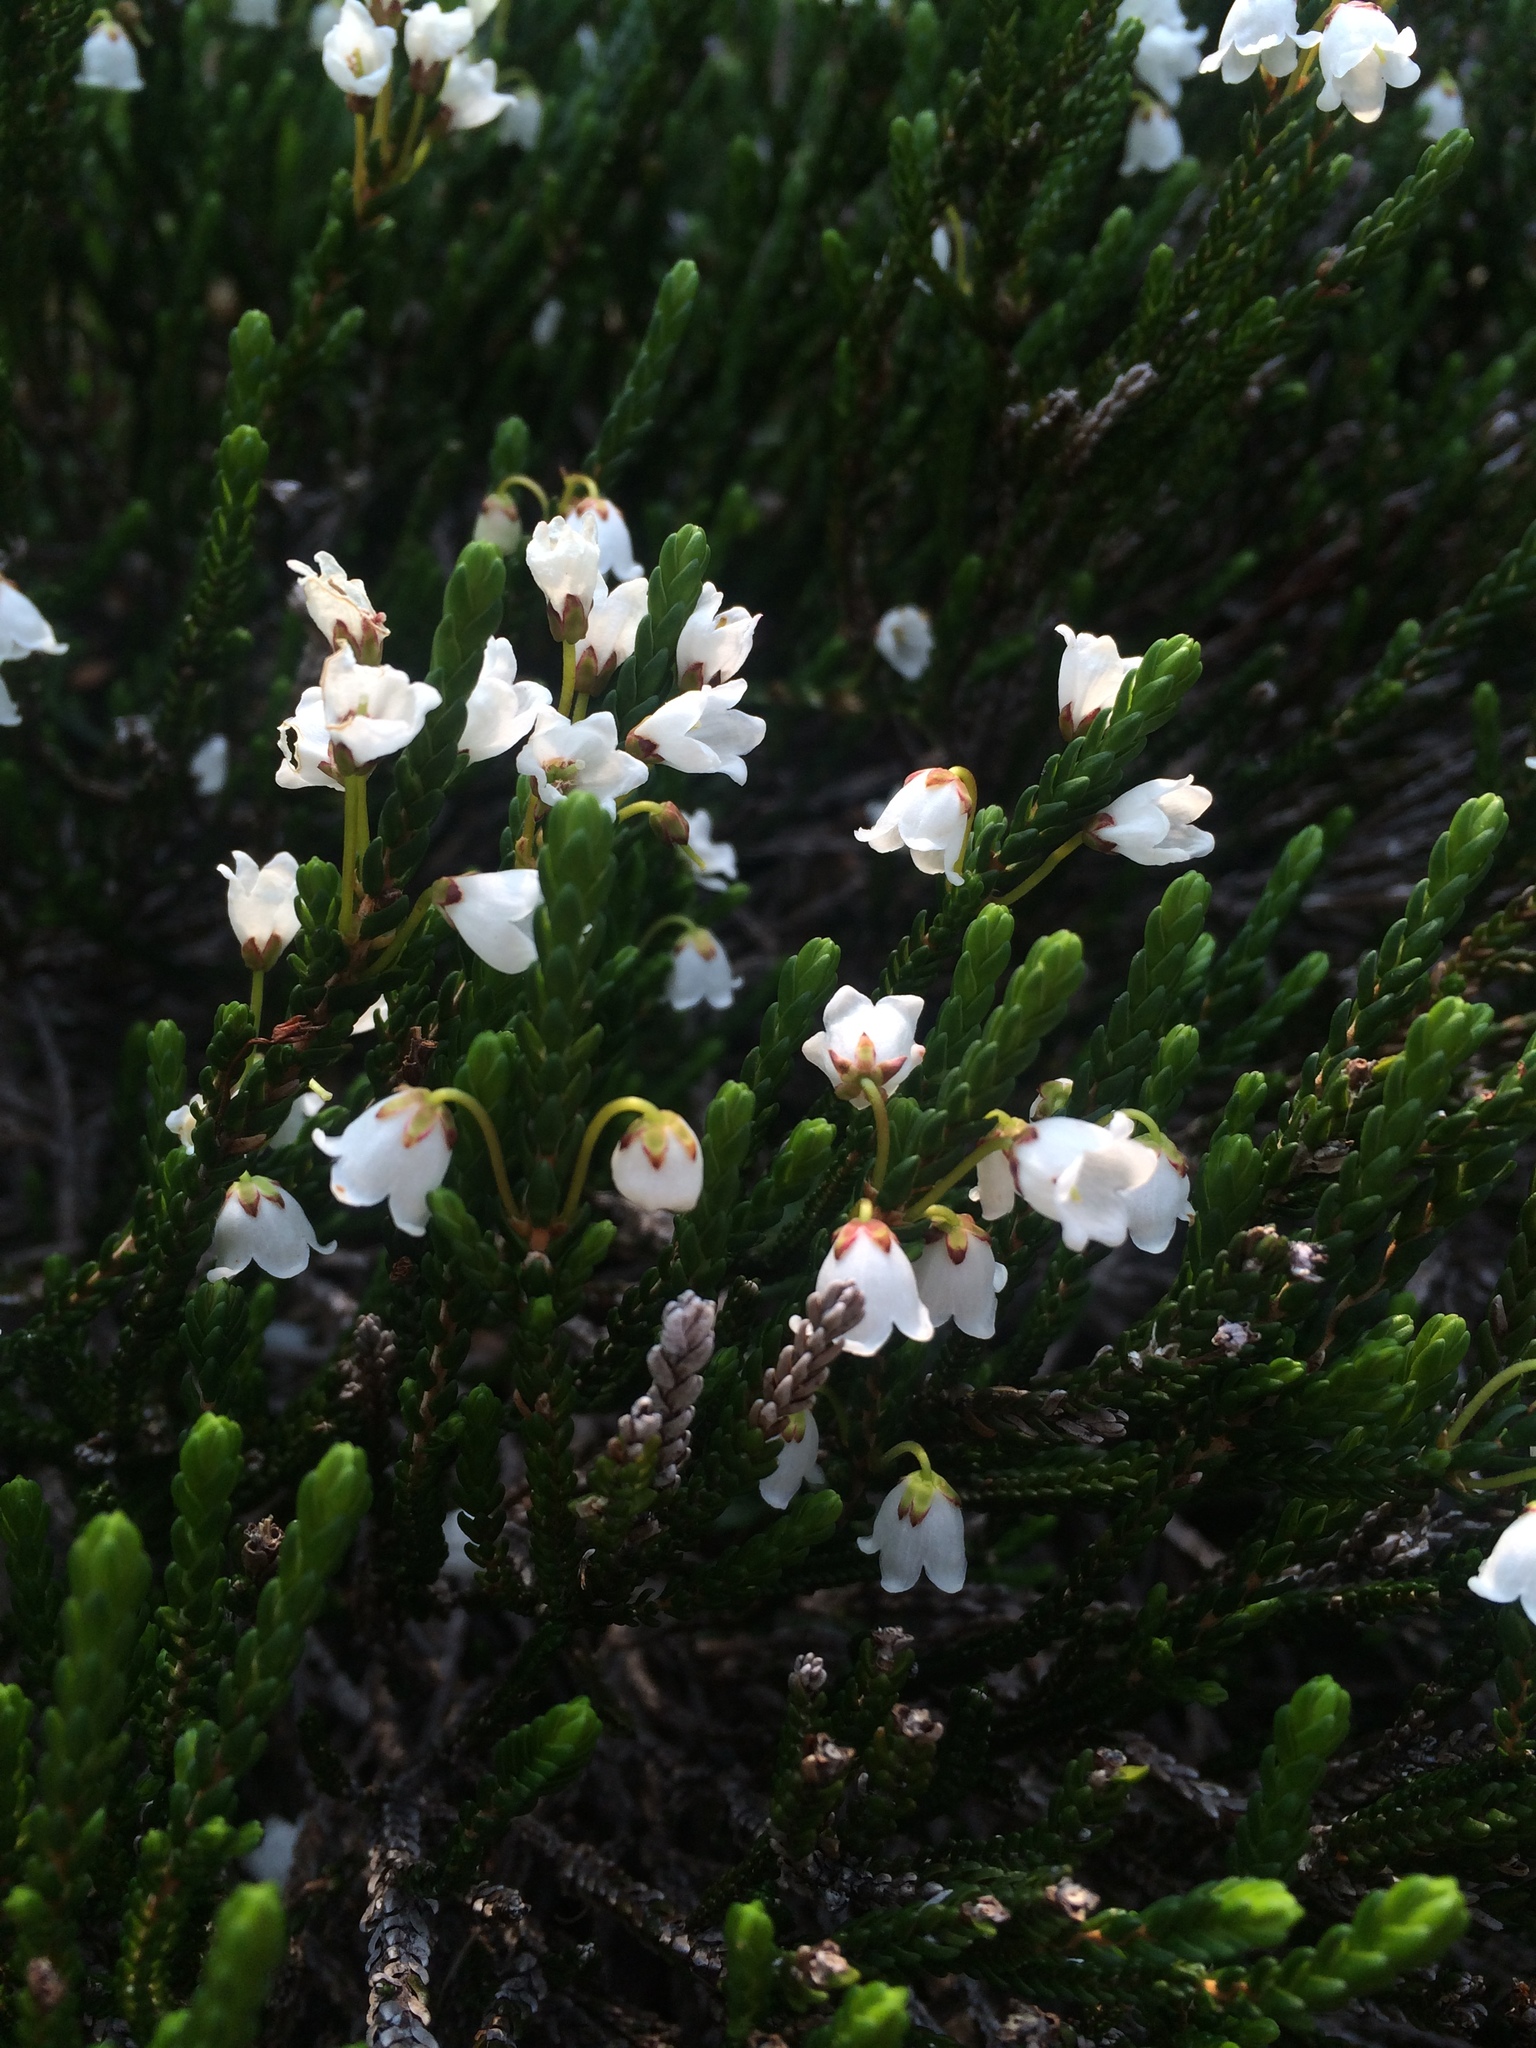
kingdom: Plantae
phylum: Tracheophyta
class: Magnoliopsida
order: Ericales
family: Ericaceae
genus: Cassiope
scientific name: Cassiope mertensiana
